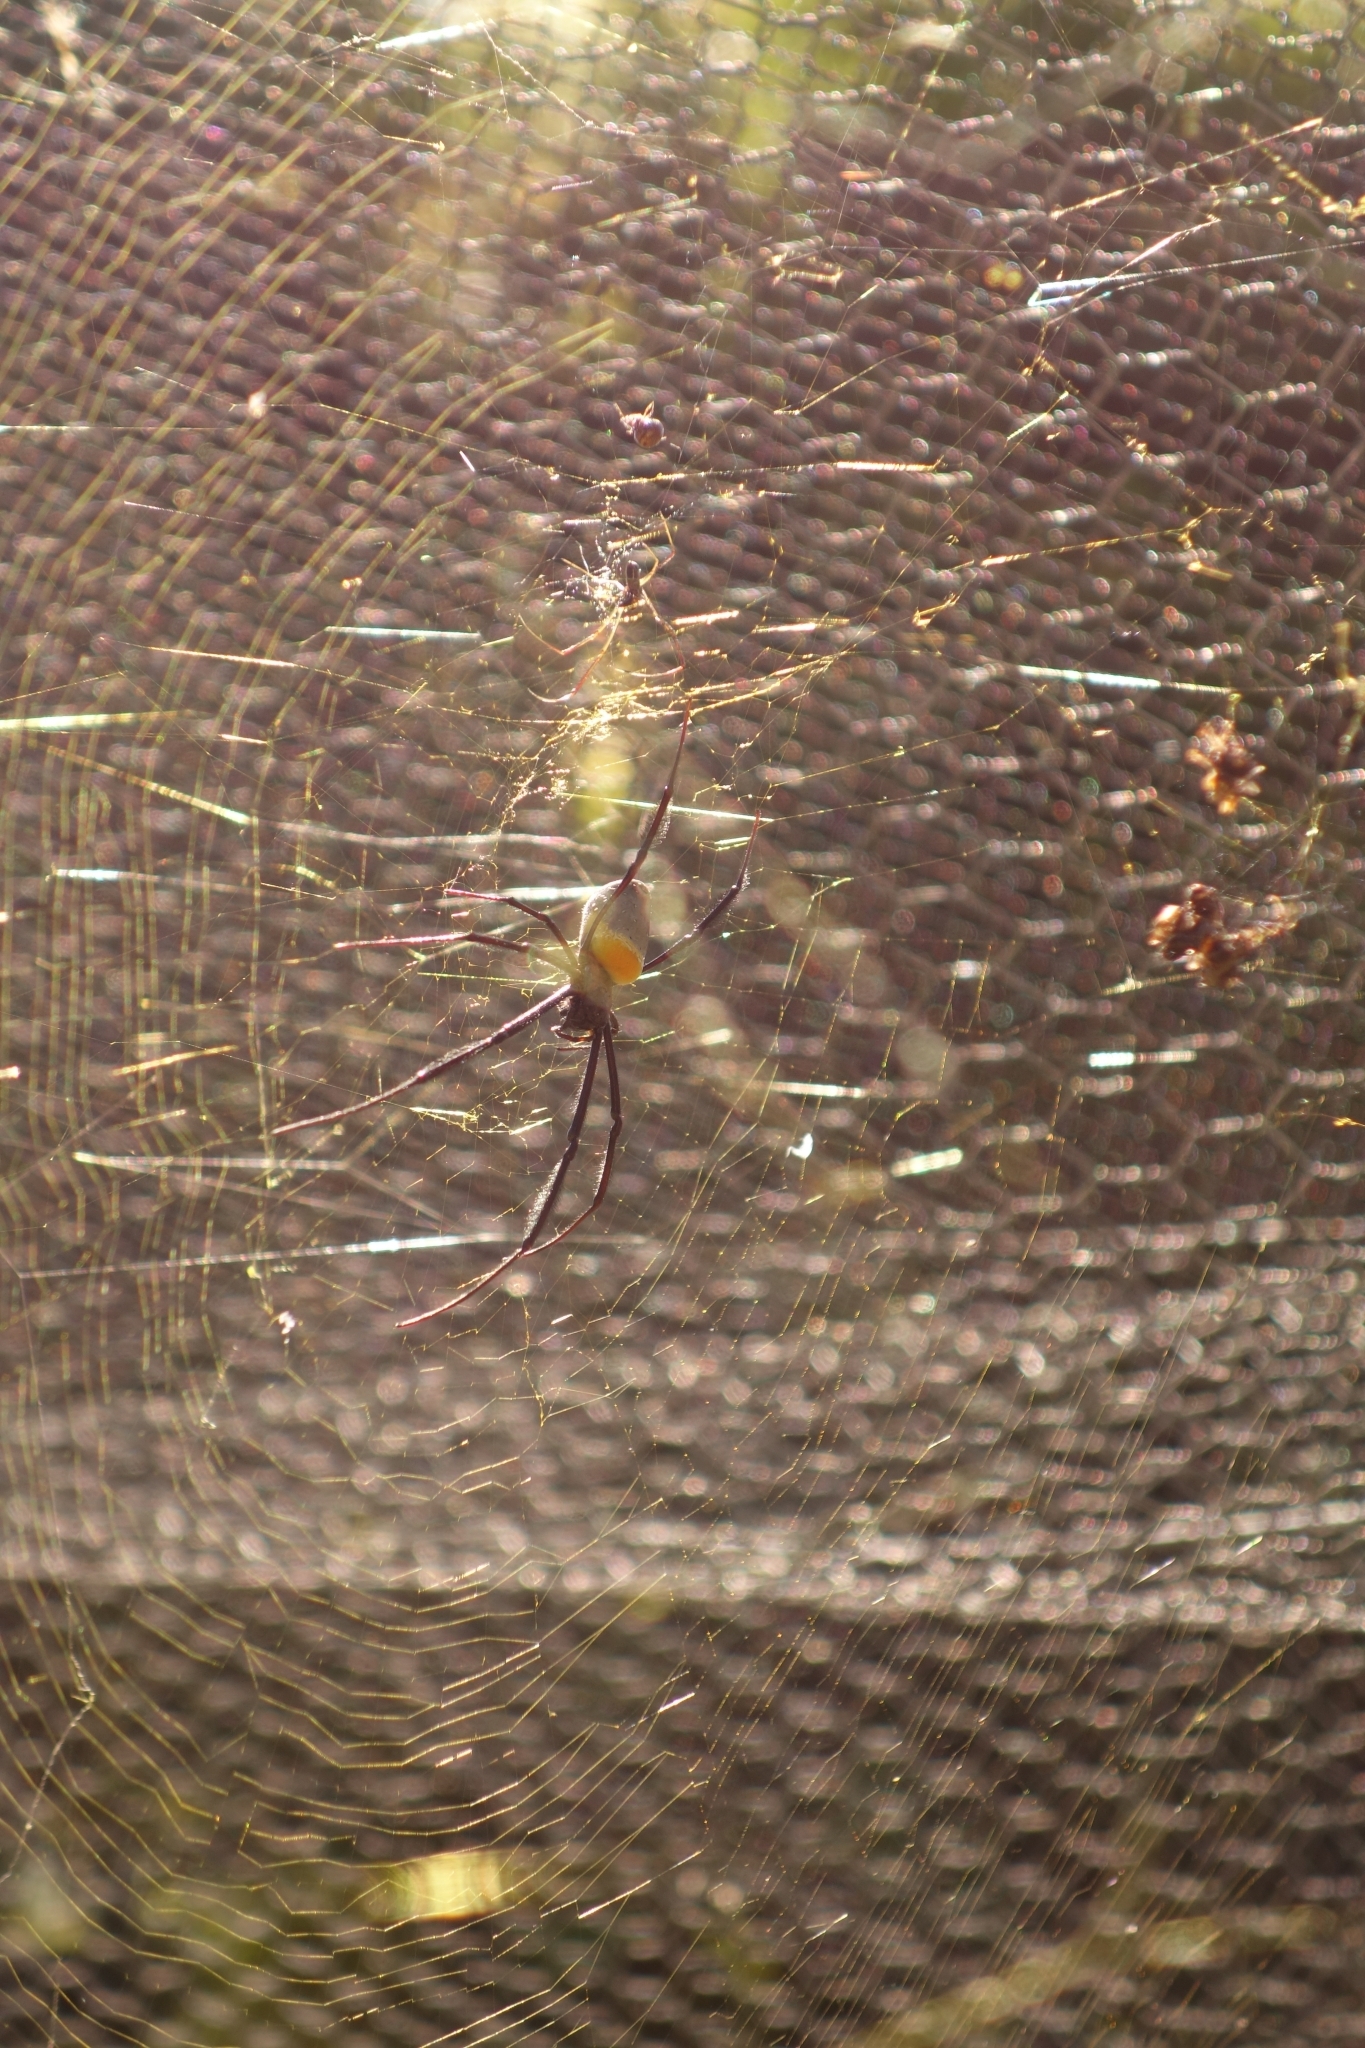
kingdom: Animalia
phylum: Arthropoda
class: Arachnida
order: Araneae
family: Araneidae
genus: Trichonephila
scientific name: Trichonephila fenestrata
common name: Hairy golden orb weaver
